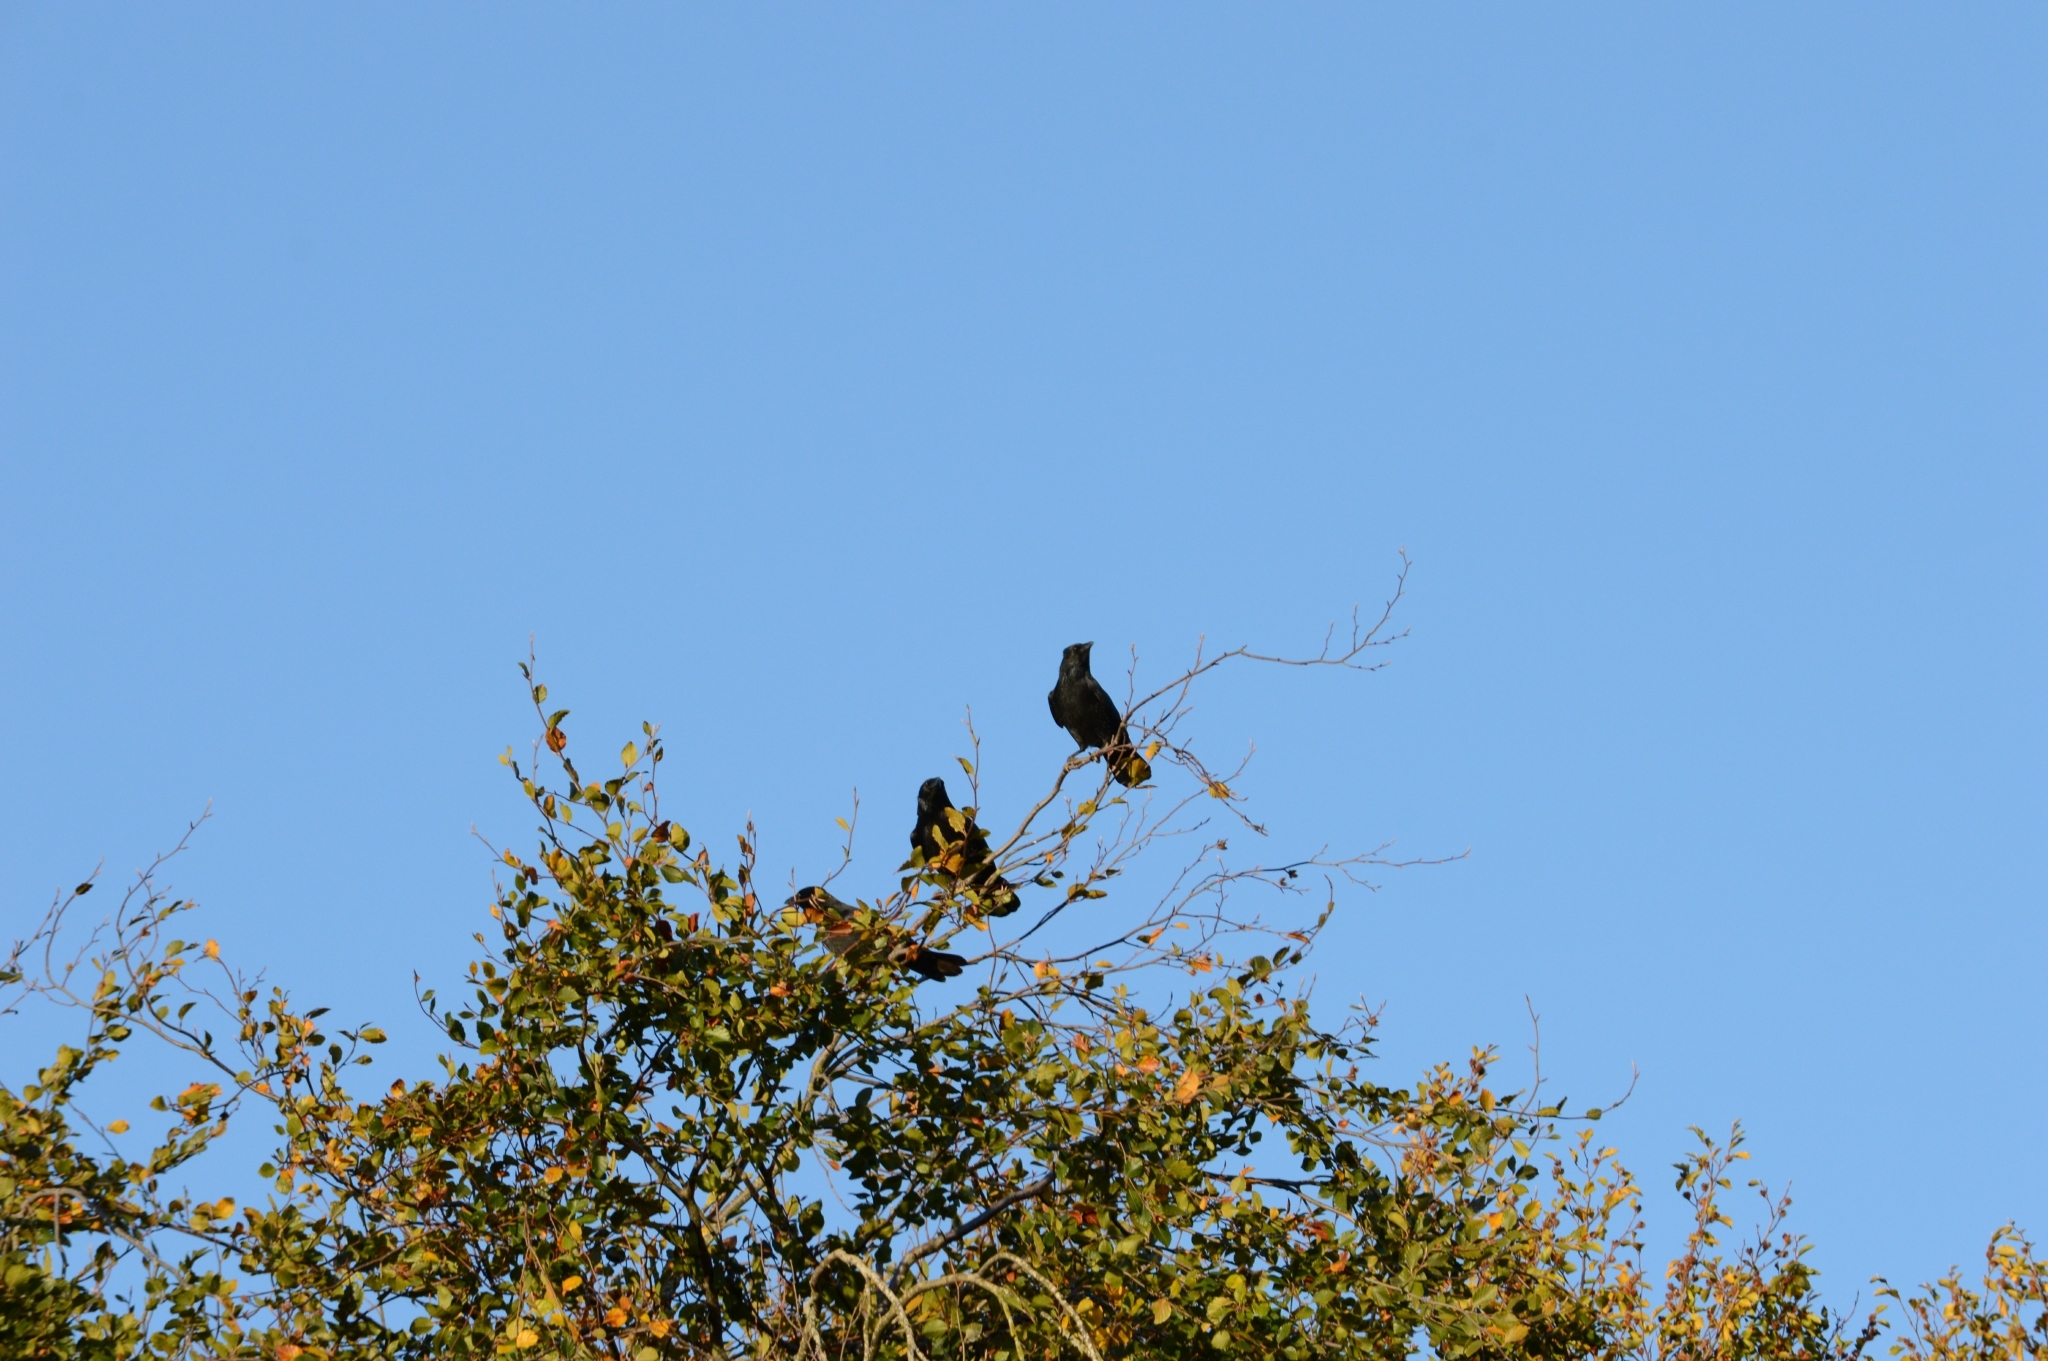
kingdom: Animalia
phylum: Chordata
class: Aves
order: Passeriformes
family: Corvidae
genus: Corvus
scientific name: Corvus corone
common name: Carrion crow
